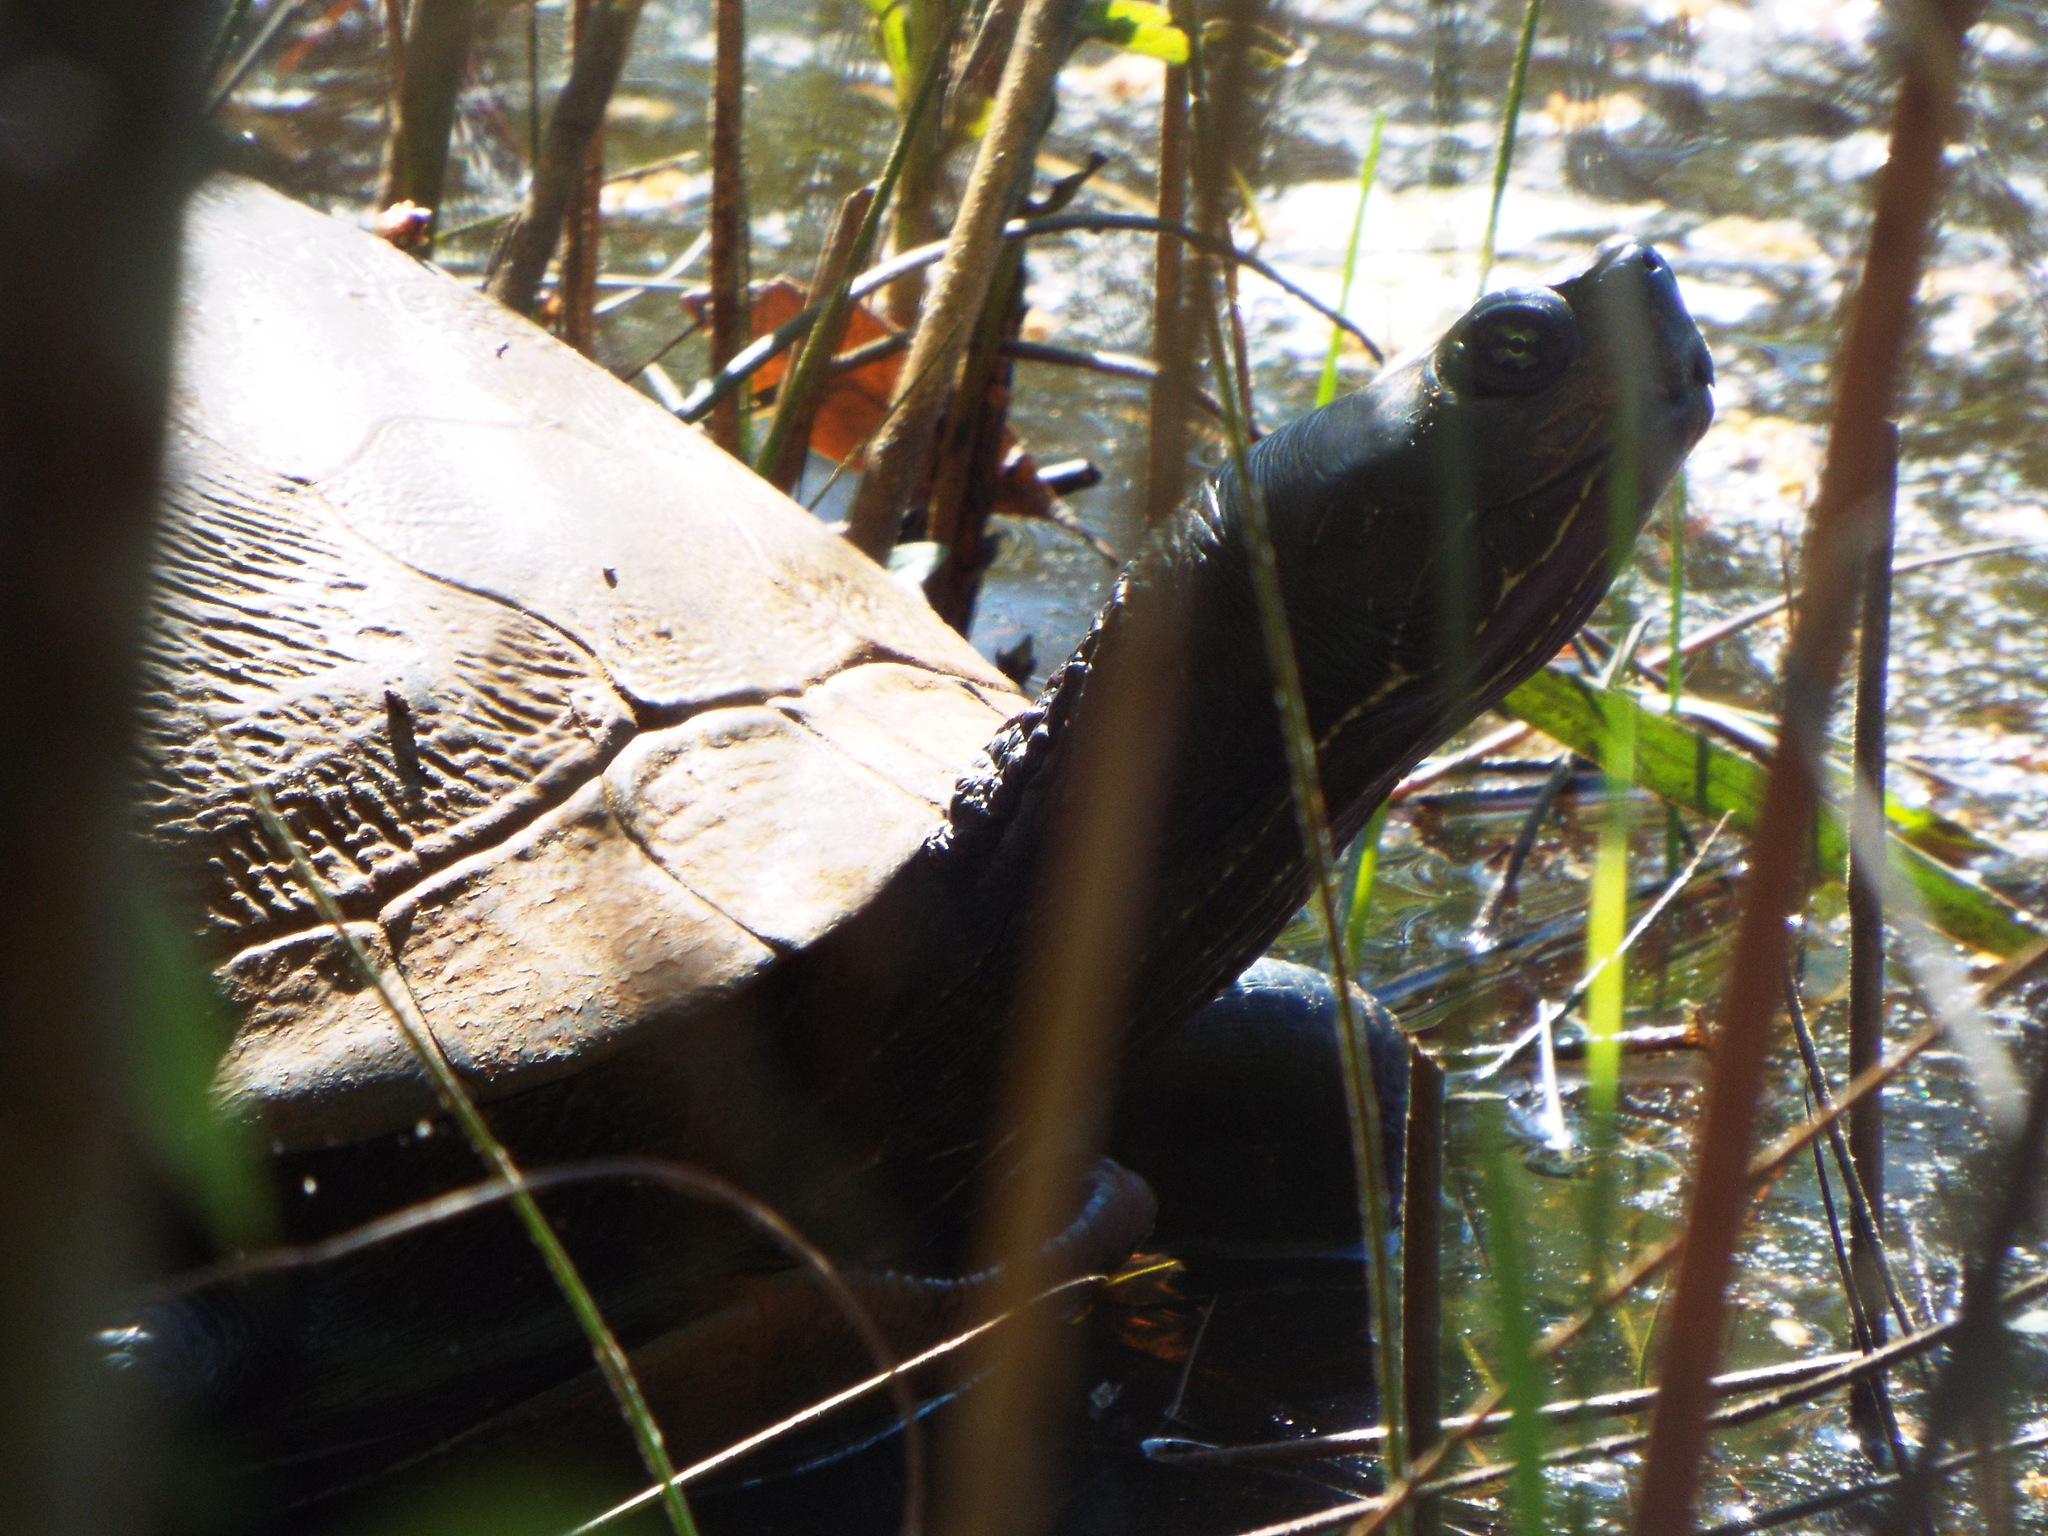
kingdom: Animalia
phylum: Chordata
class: Testudines
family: Emydidae
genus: Pseudemys
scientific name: Pseudemys rubriventris
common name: American red-bellied turtle
